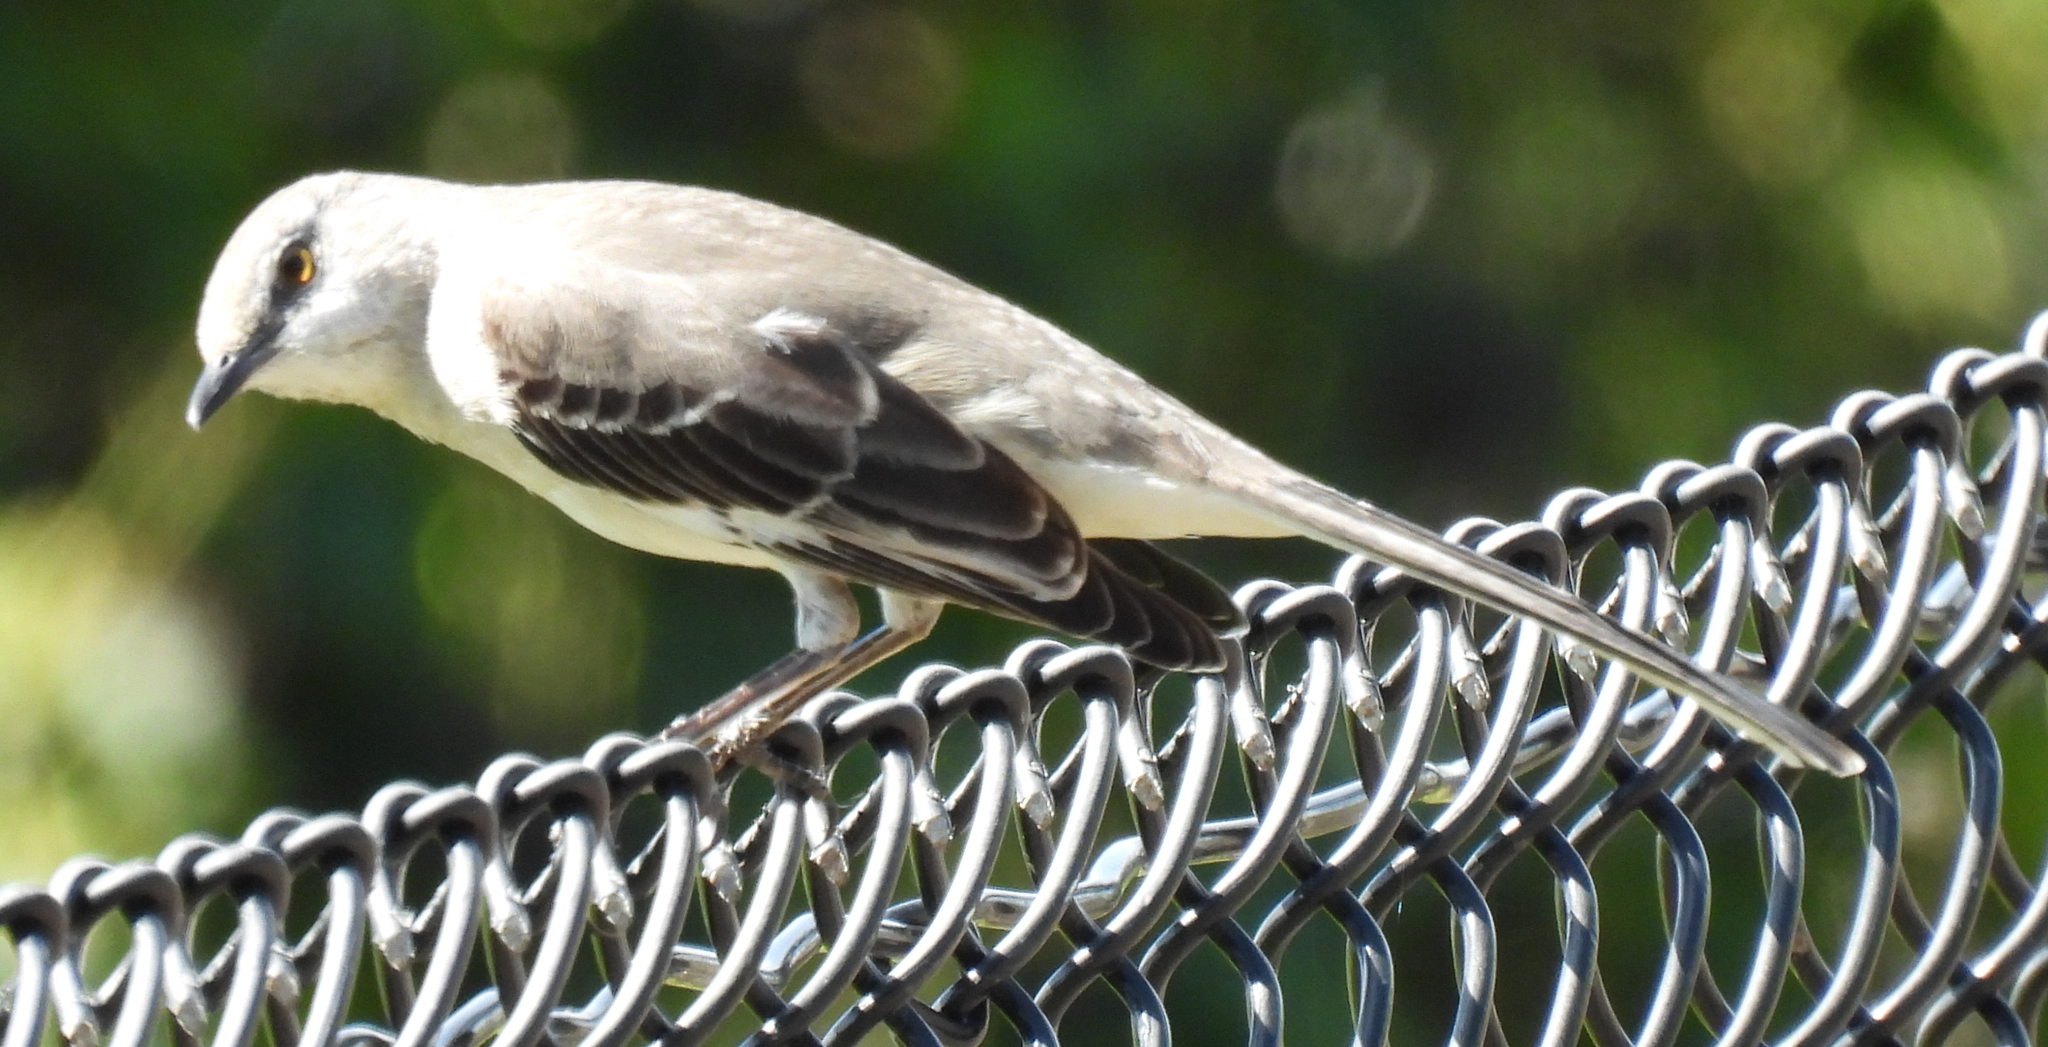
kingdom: Animalia
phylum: Chordata
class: Aves
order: Passeriformes
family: Mimidae
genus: Mimus
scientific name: Mimus polyglottos
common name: Northern mockingbird
